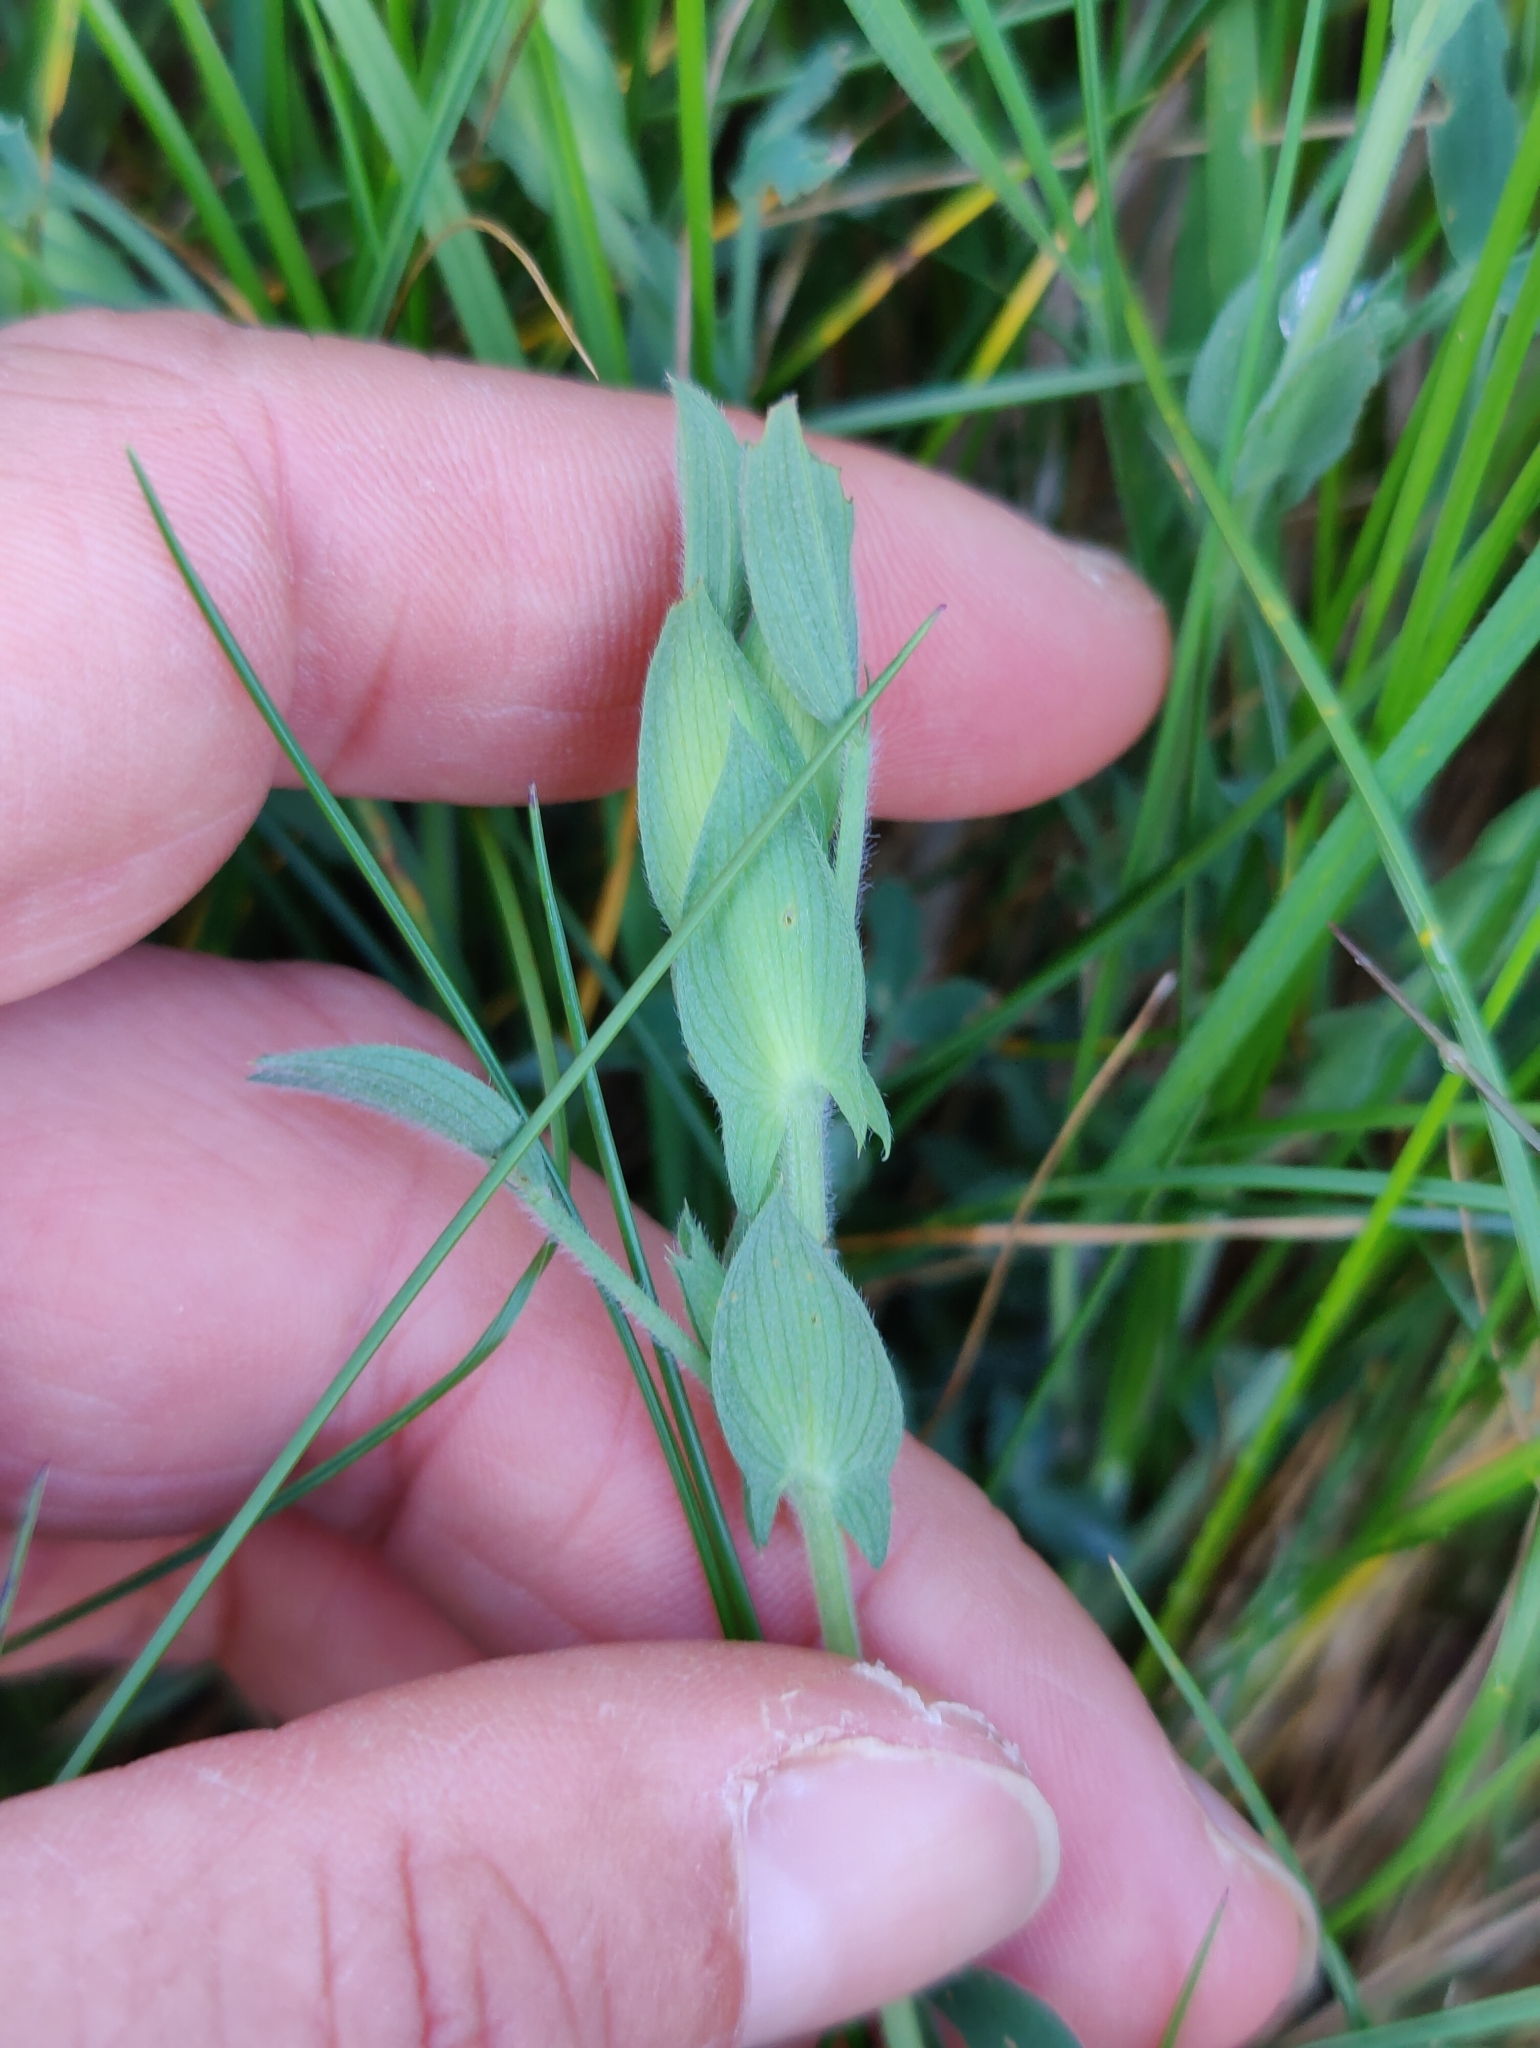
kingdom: Plantae
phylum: Tracheophyta
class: Magnoliopsida
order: Fabales
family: Fabaceae
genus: Lathyrus
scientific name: Lathyrus pratensis
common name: Meadow vetchling
